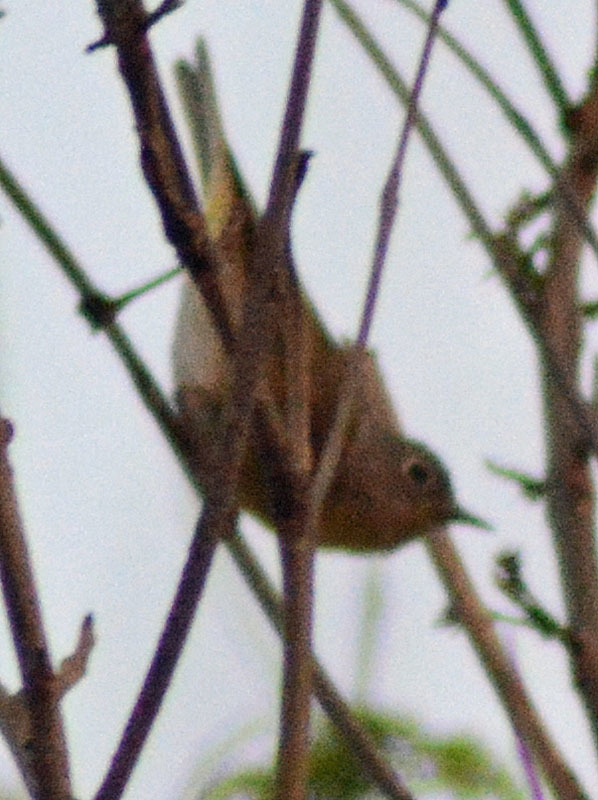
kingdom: Animalia
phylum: Chordata
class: Aves
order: Passeriformes
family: Parulidae
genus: Leiothlypis
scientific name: Leiothlypis ruficapilla
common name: Nashville warbler
